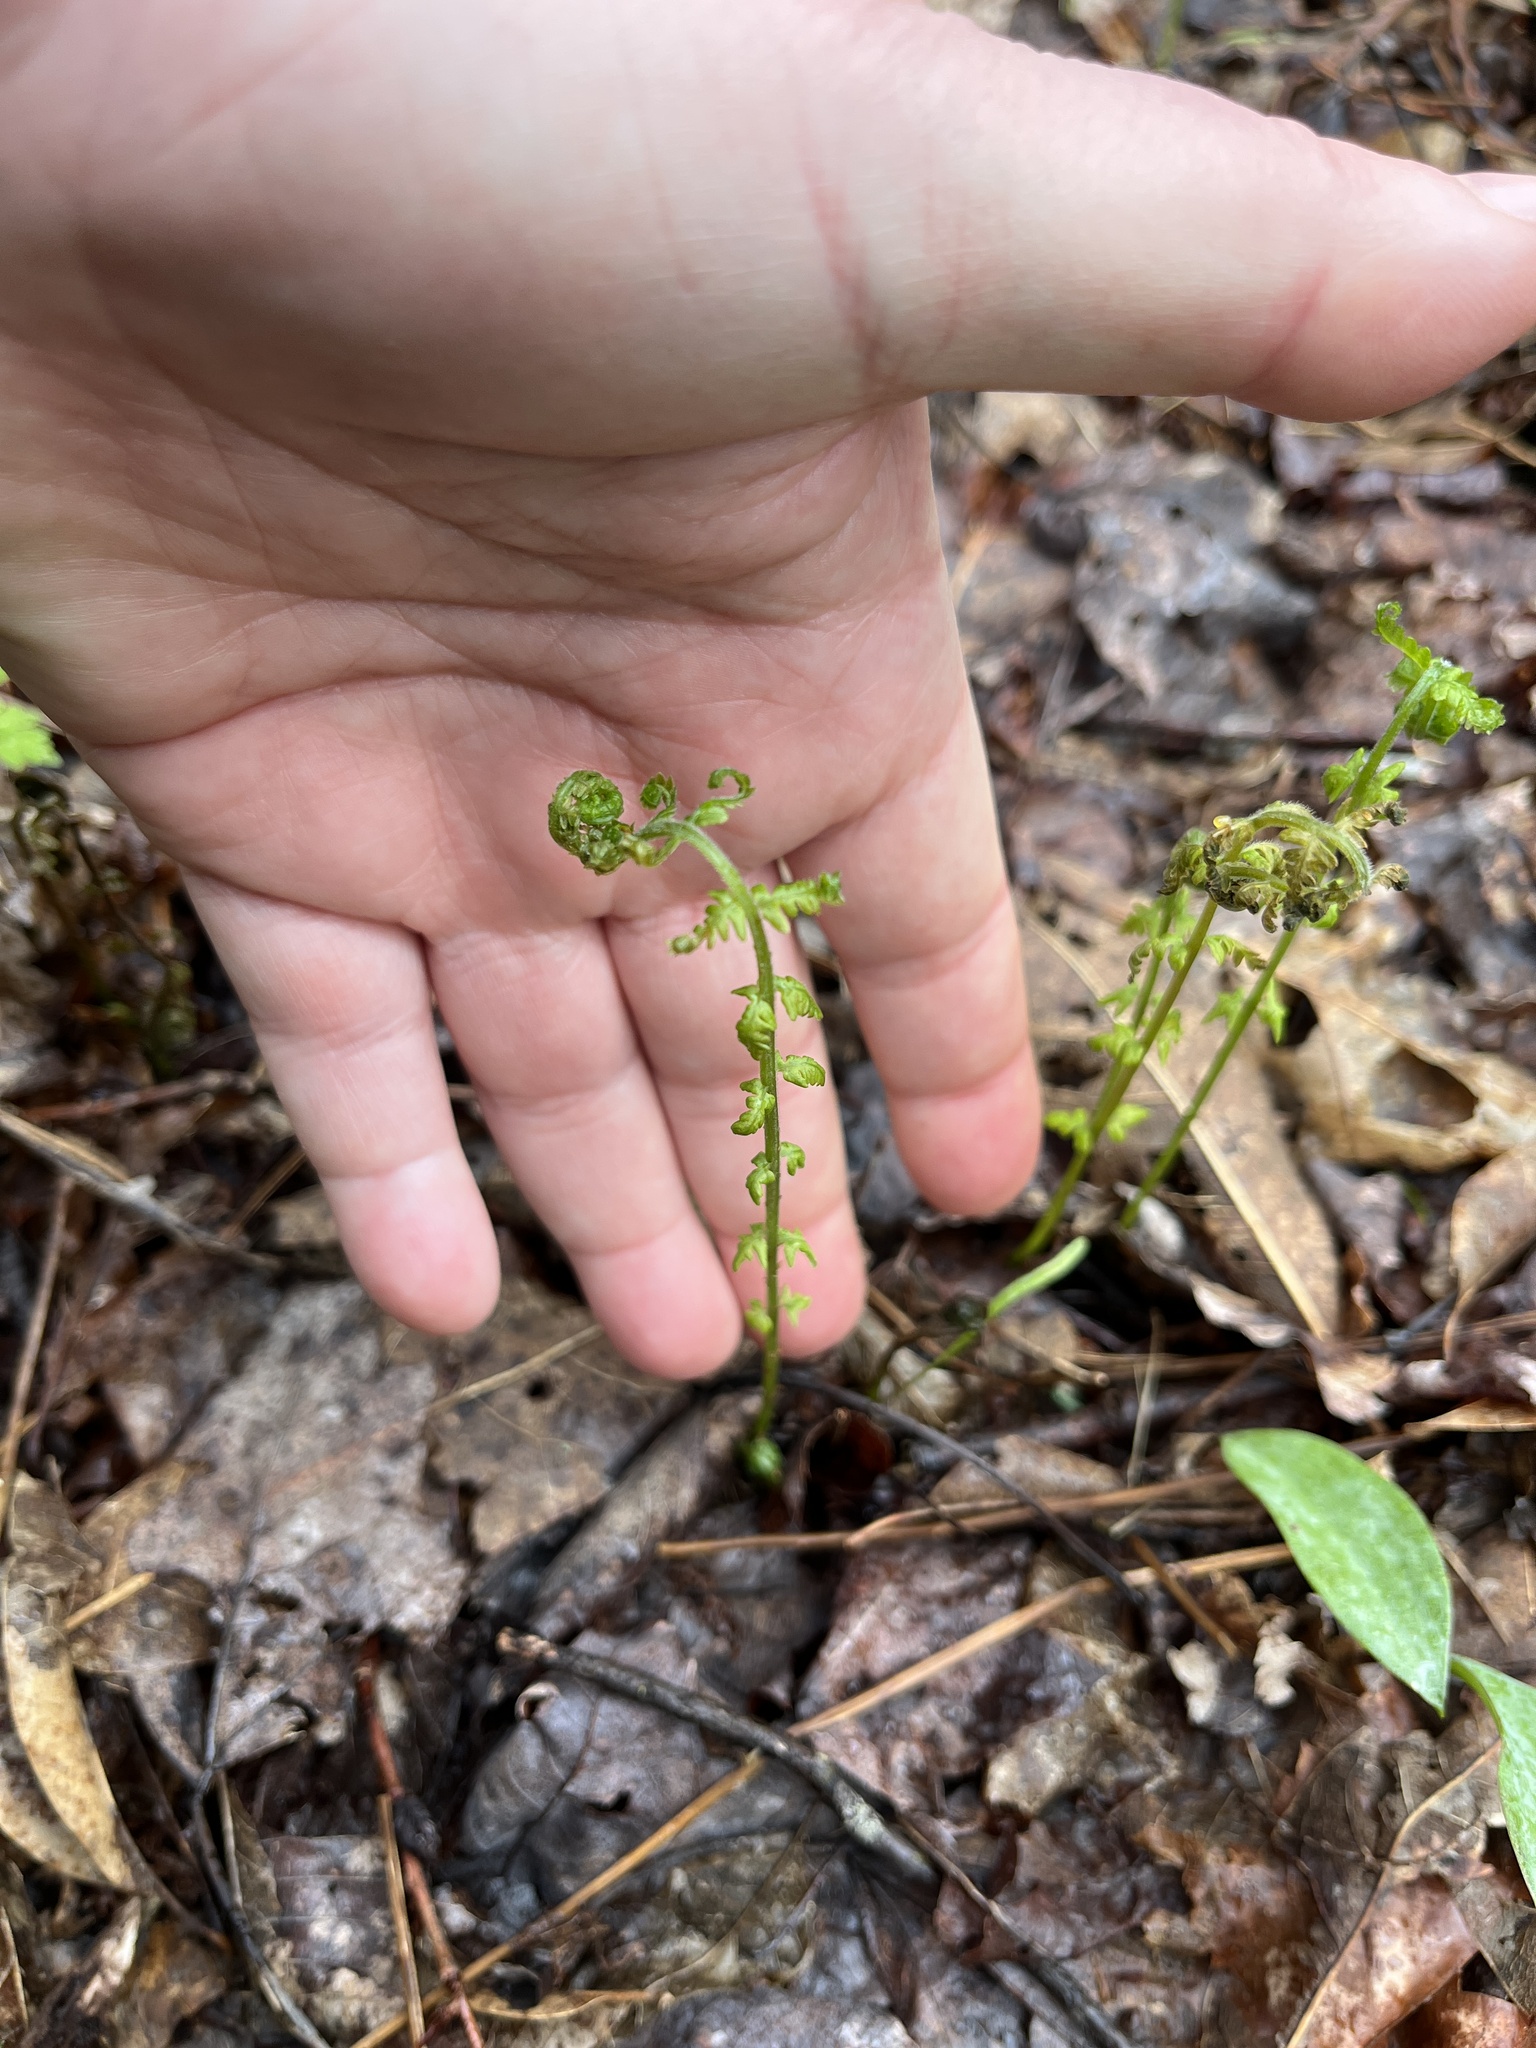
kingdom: Plantae
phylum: Tracheophyta
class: Polypodiopsida
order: Polypodiales
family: Thelypteridaceae
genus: Amauropelta
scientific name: Amauropelta noveboracensis
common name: New york fern
